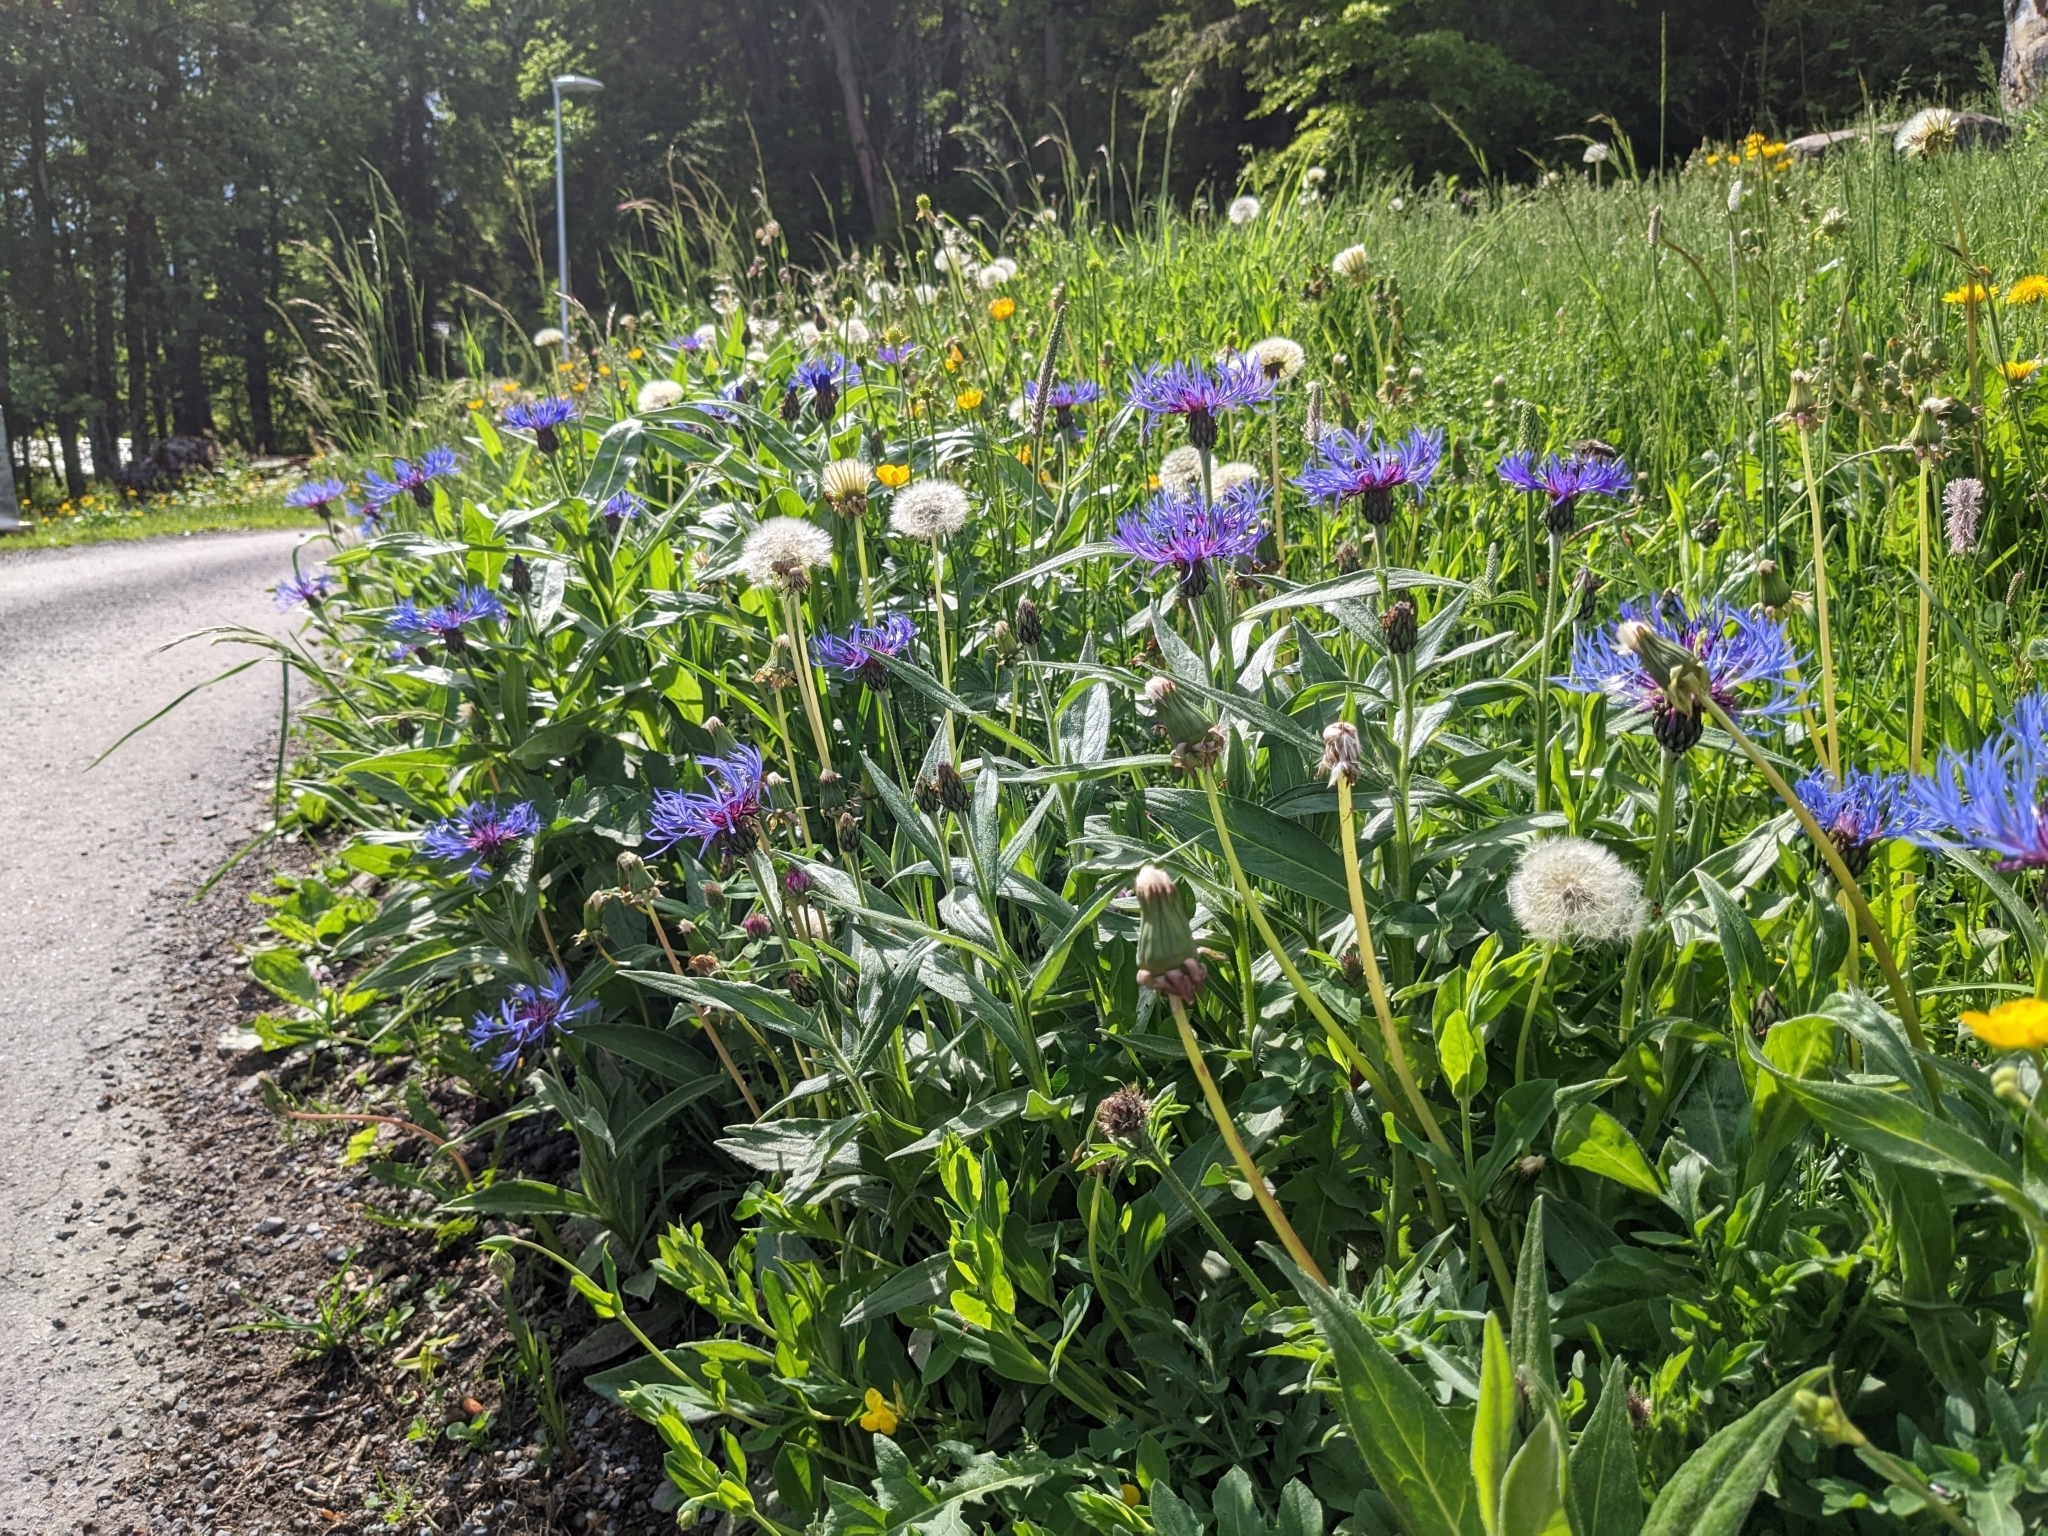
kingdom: Plantae
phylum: Tracheophyta
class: Magnoliopsida
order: Asterales
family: Asteraceae
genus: Centaurea
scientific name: Centaurea montana
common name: Perennial cornflower
